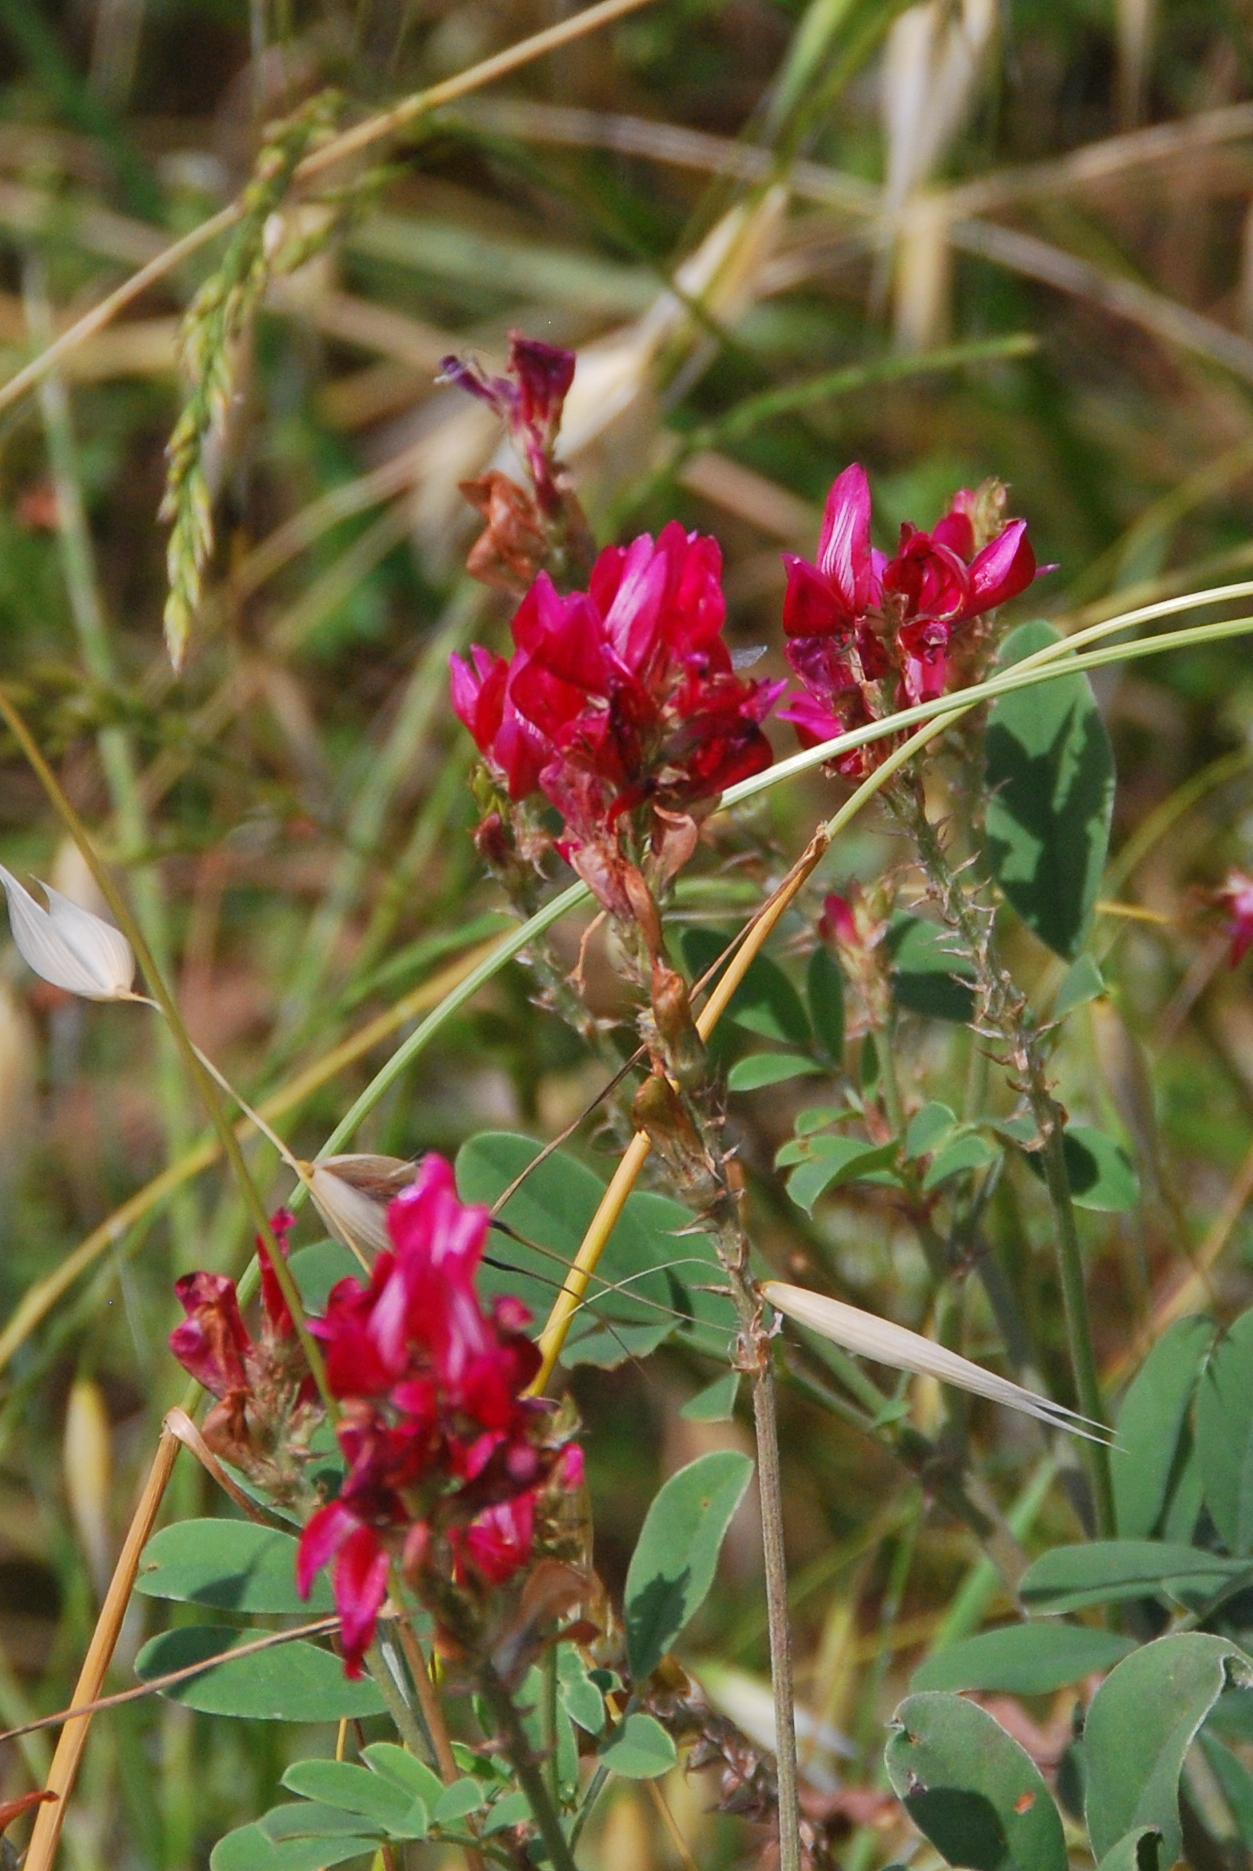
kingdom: Plantae
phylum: Tracheophyta
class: Magnoliopsida
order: Fabales
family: Fabaceae
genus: Sulla
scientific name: Sulla coronaria
